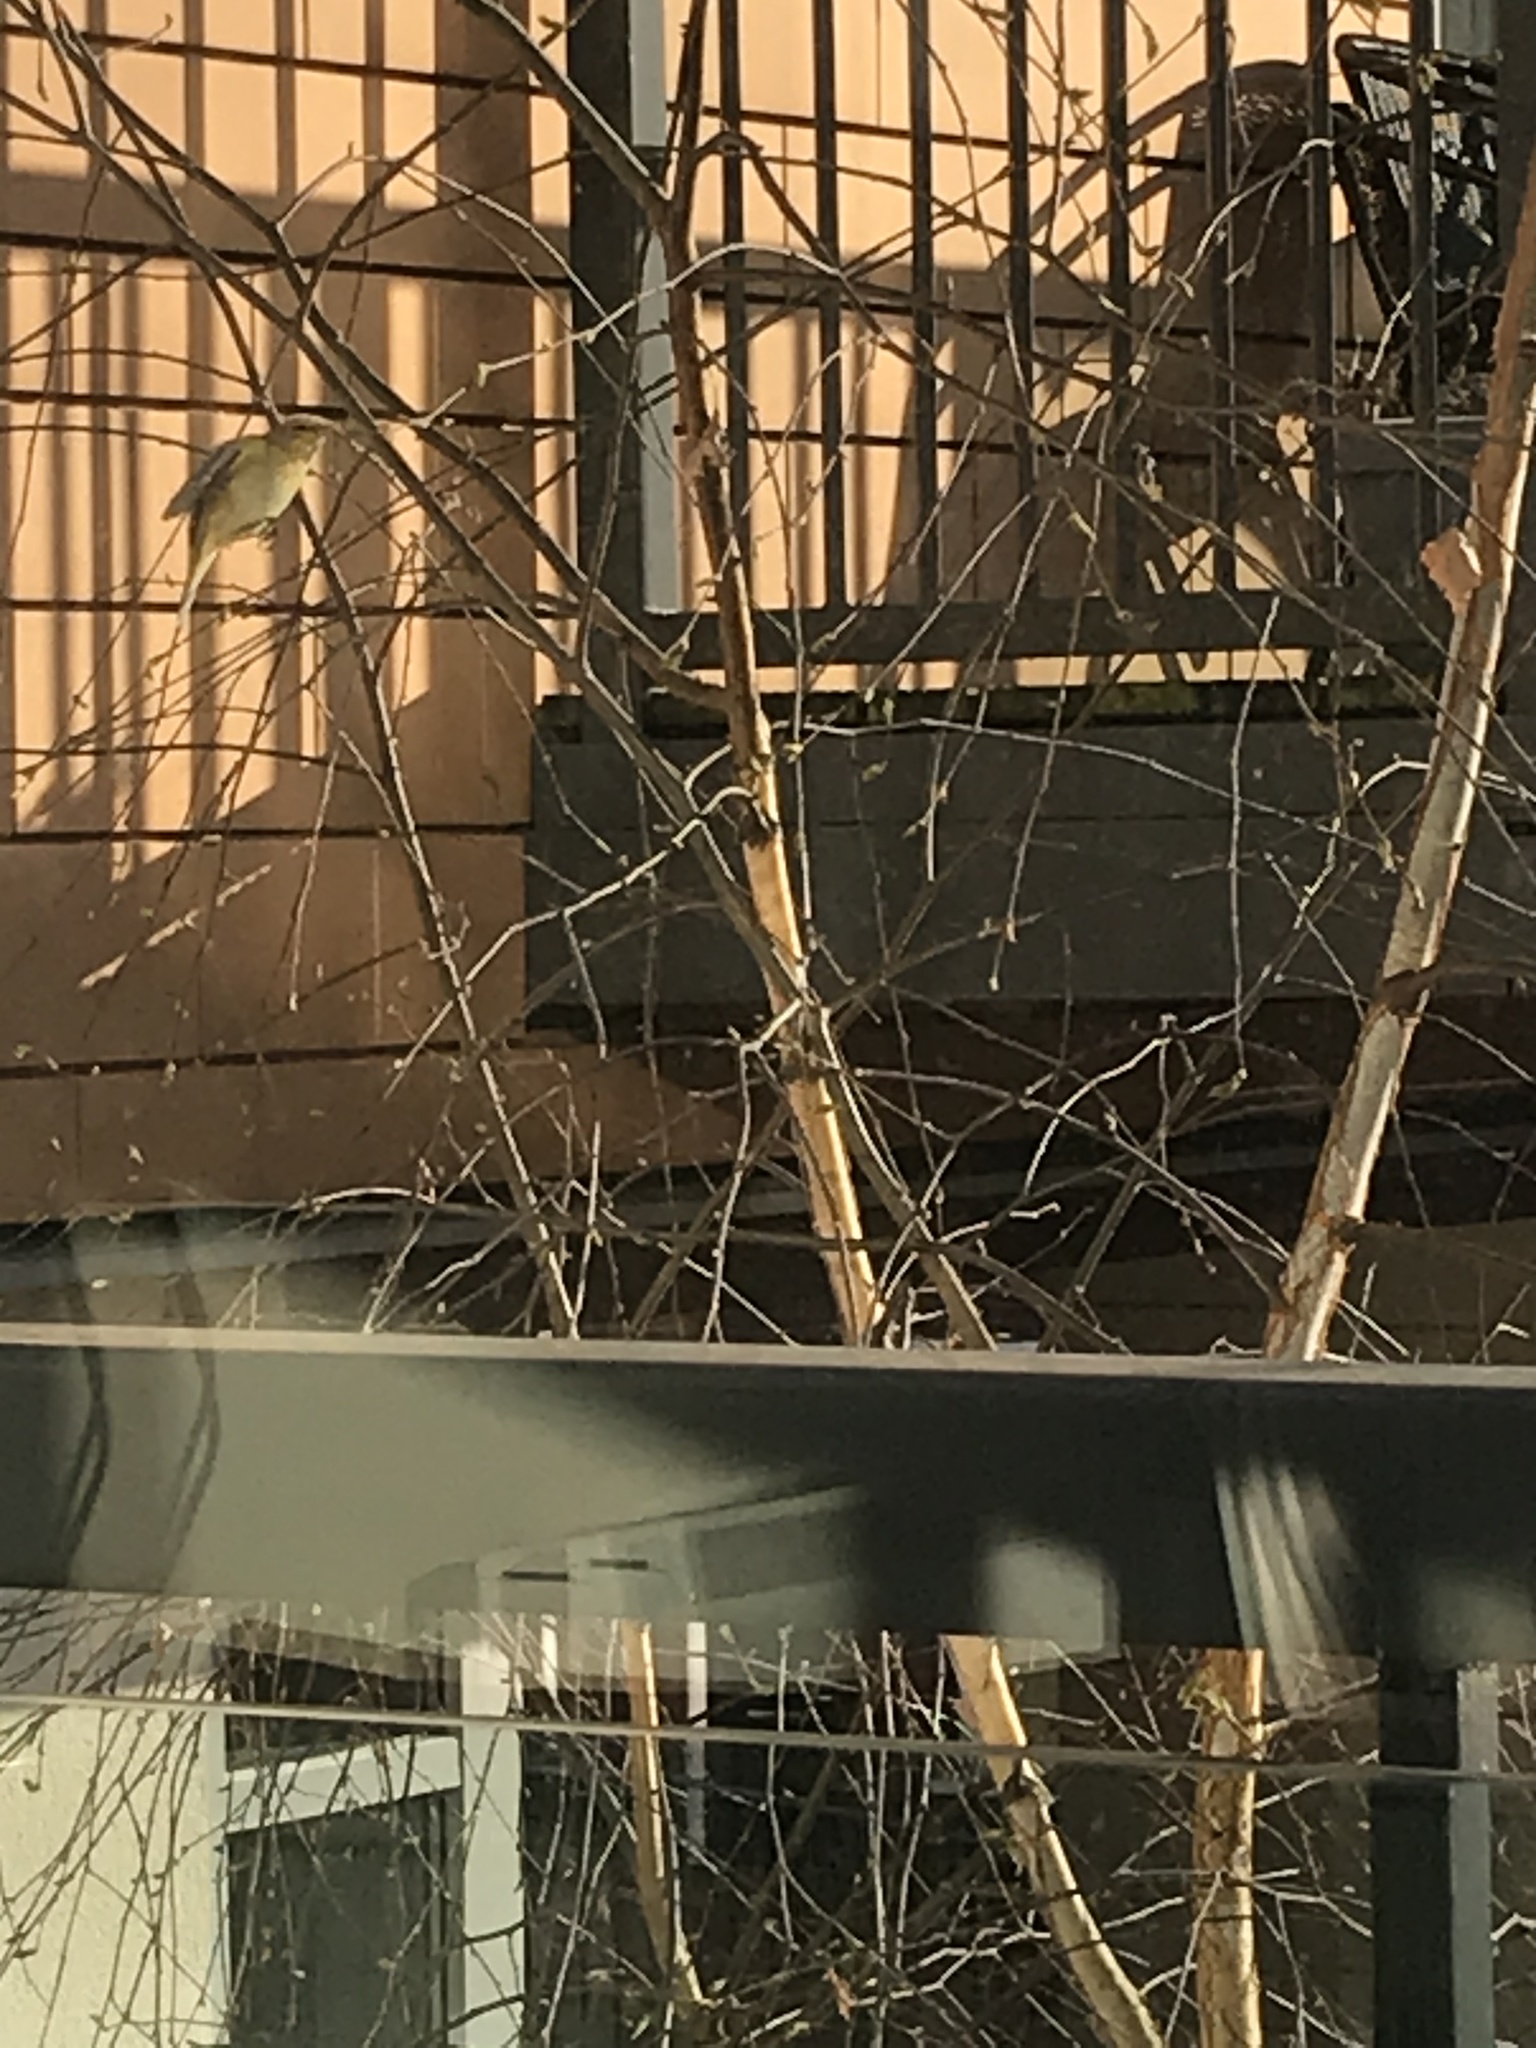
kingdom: Animalia
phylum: Chordata
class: Aves
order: Passeriformes
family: Phylloscopidae
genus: Phylloscopus
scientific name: Phylloscopus collybita
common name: Common chiffchaff
